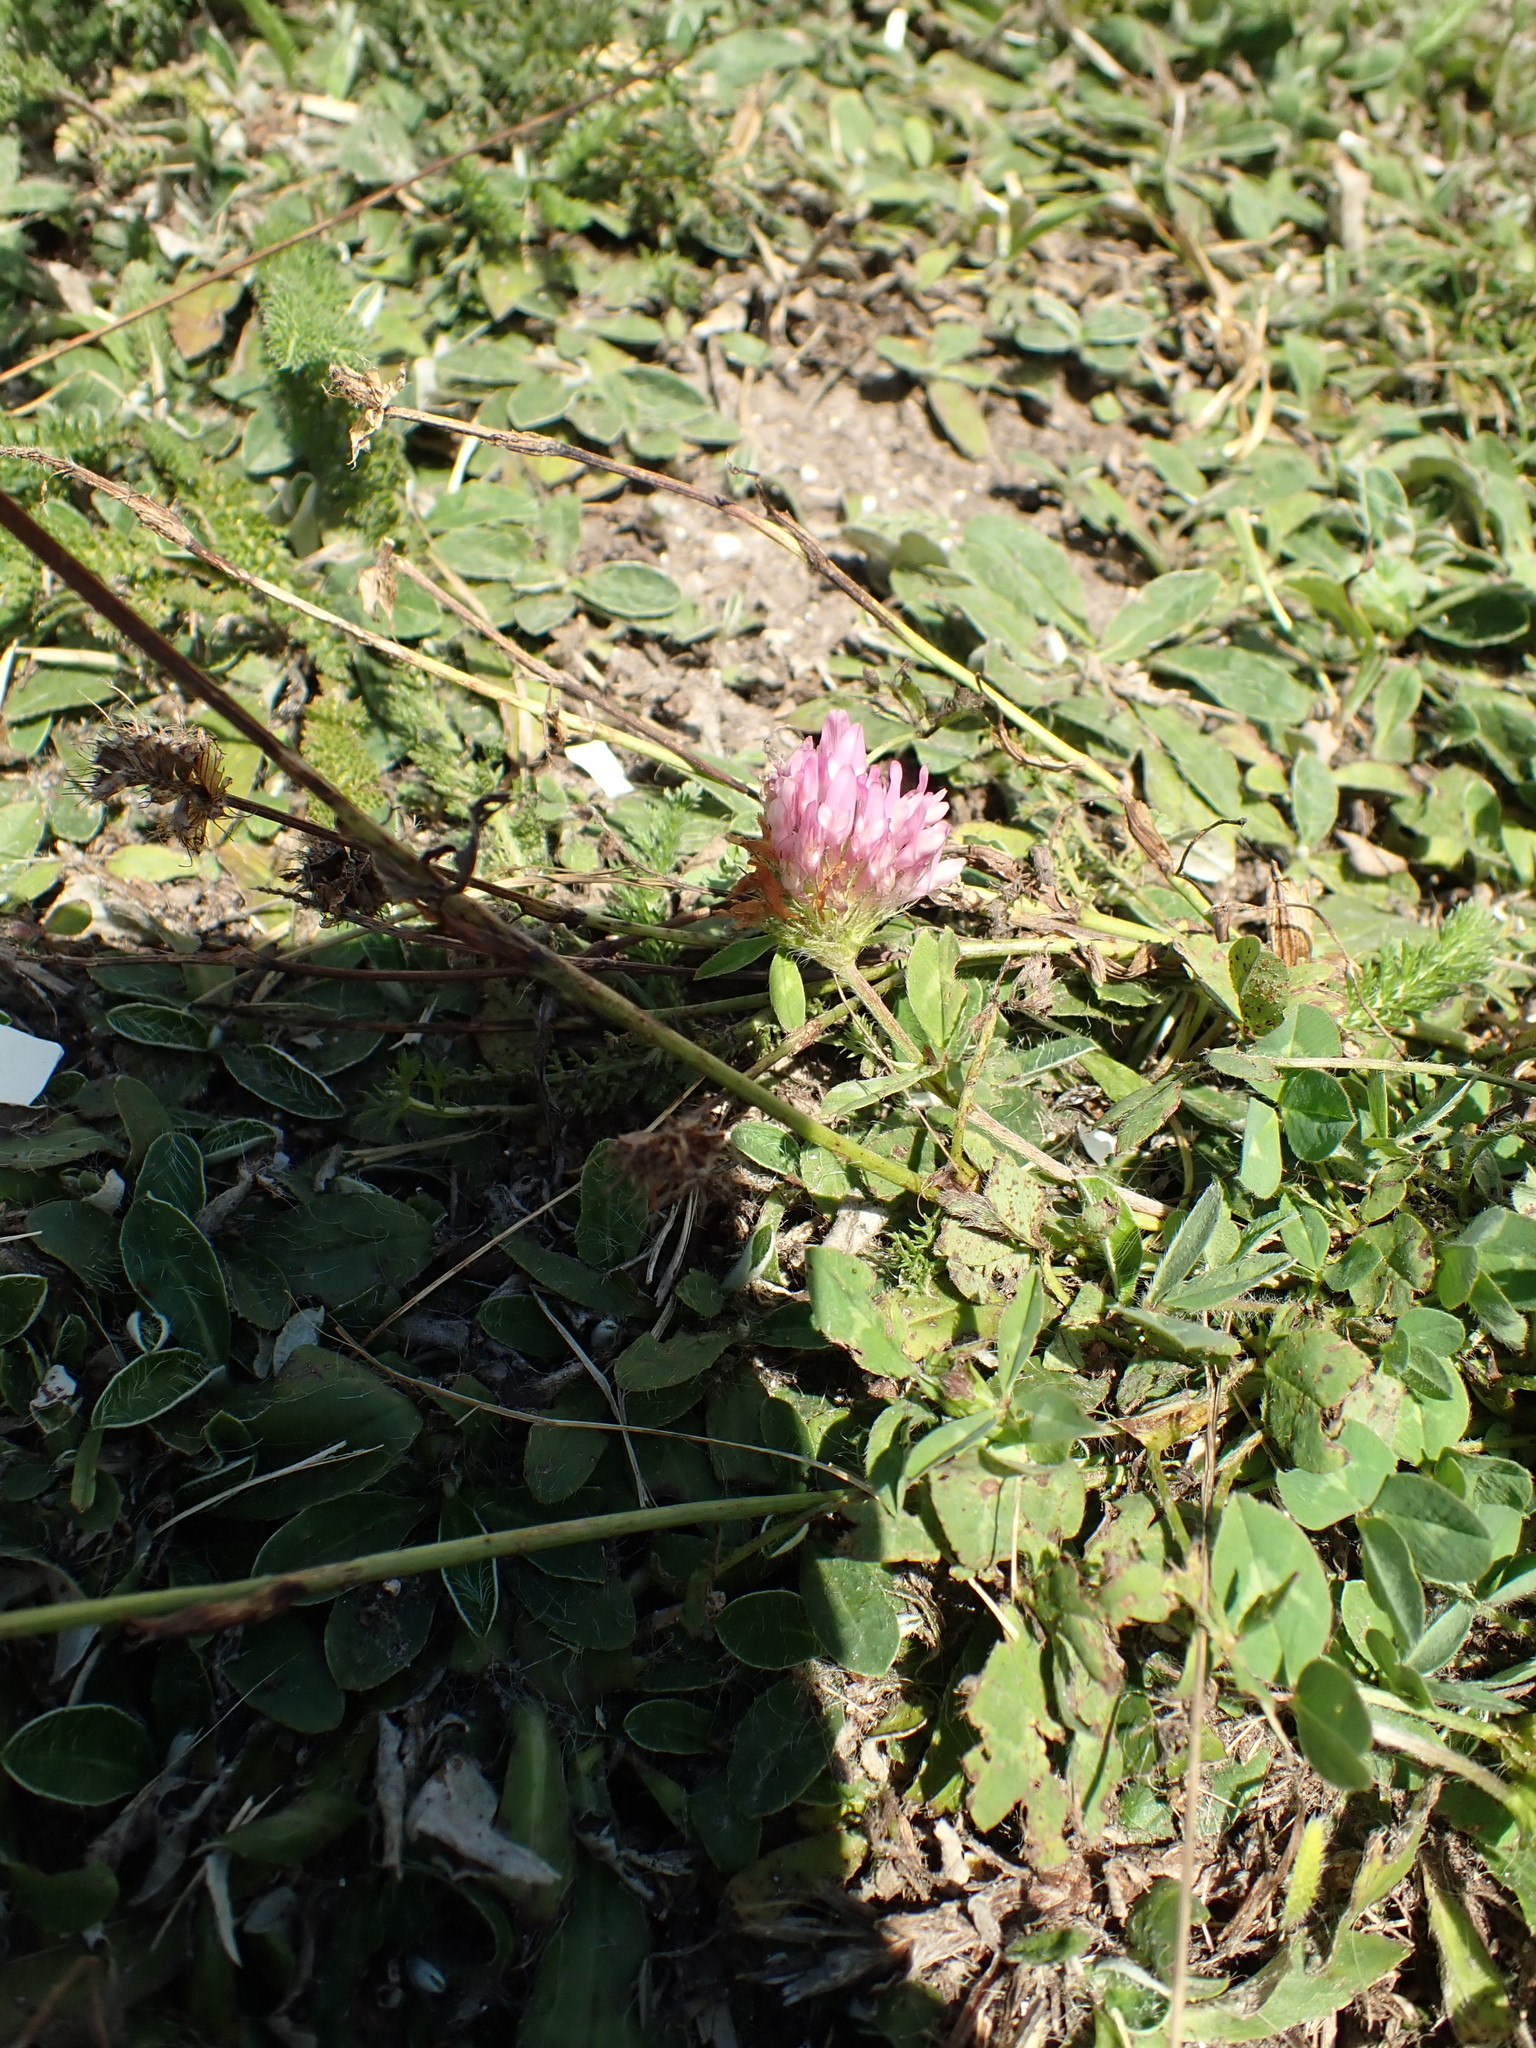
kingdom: Plantae
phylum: Tracheophyta
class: Magnoliopsida
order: Fabales
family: Fabaceae
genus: Trifolium
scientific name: Trifolium pratense
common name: Red clover
